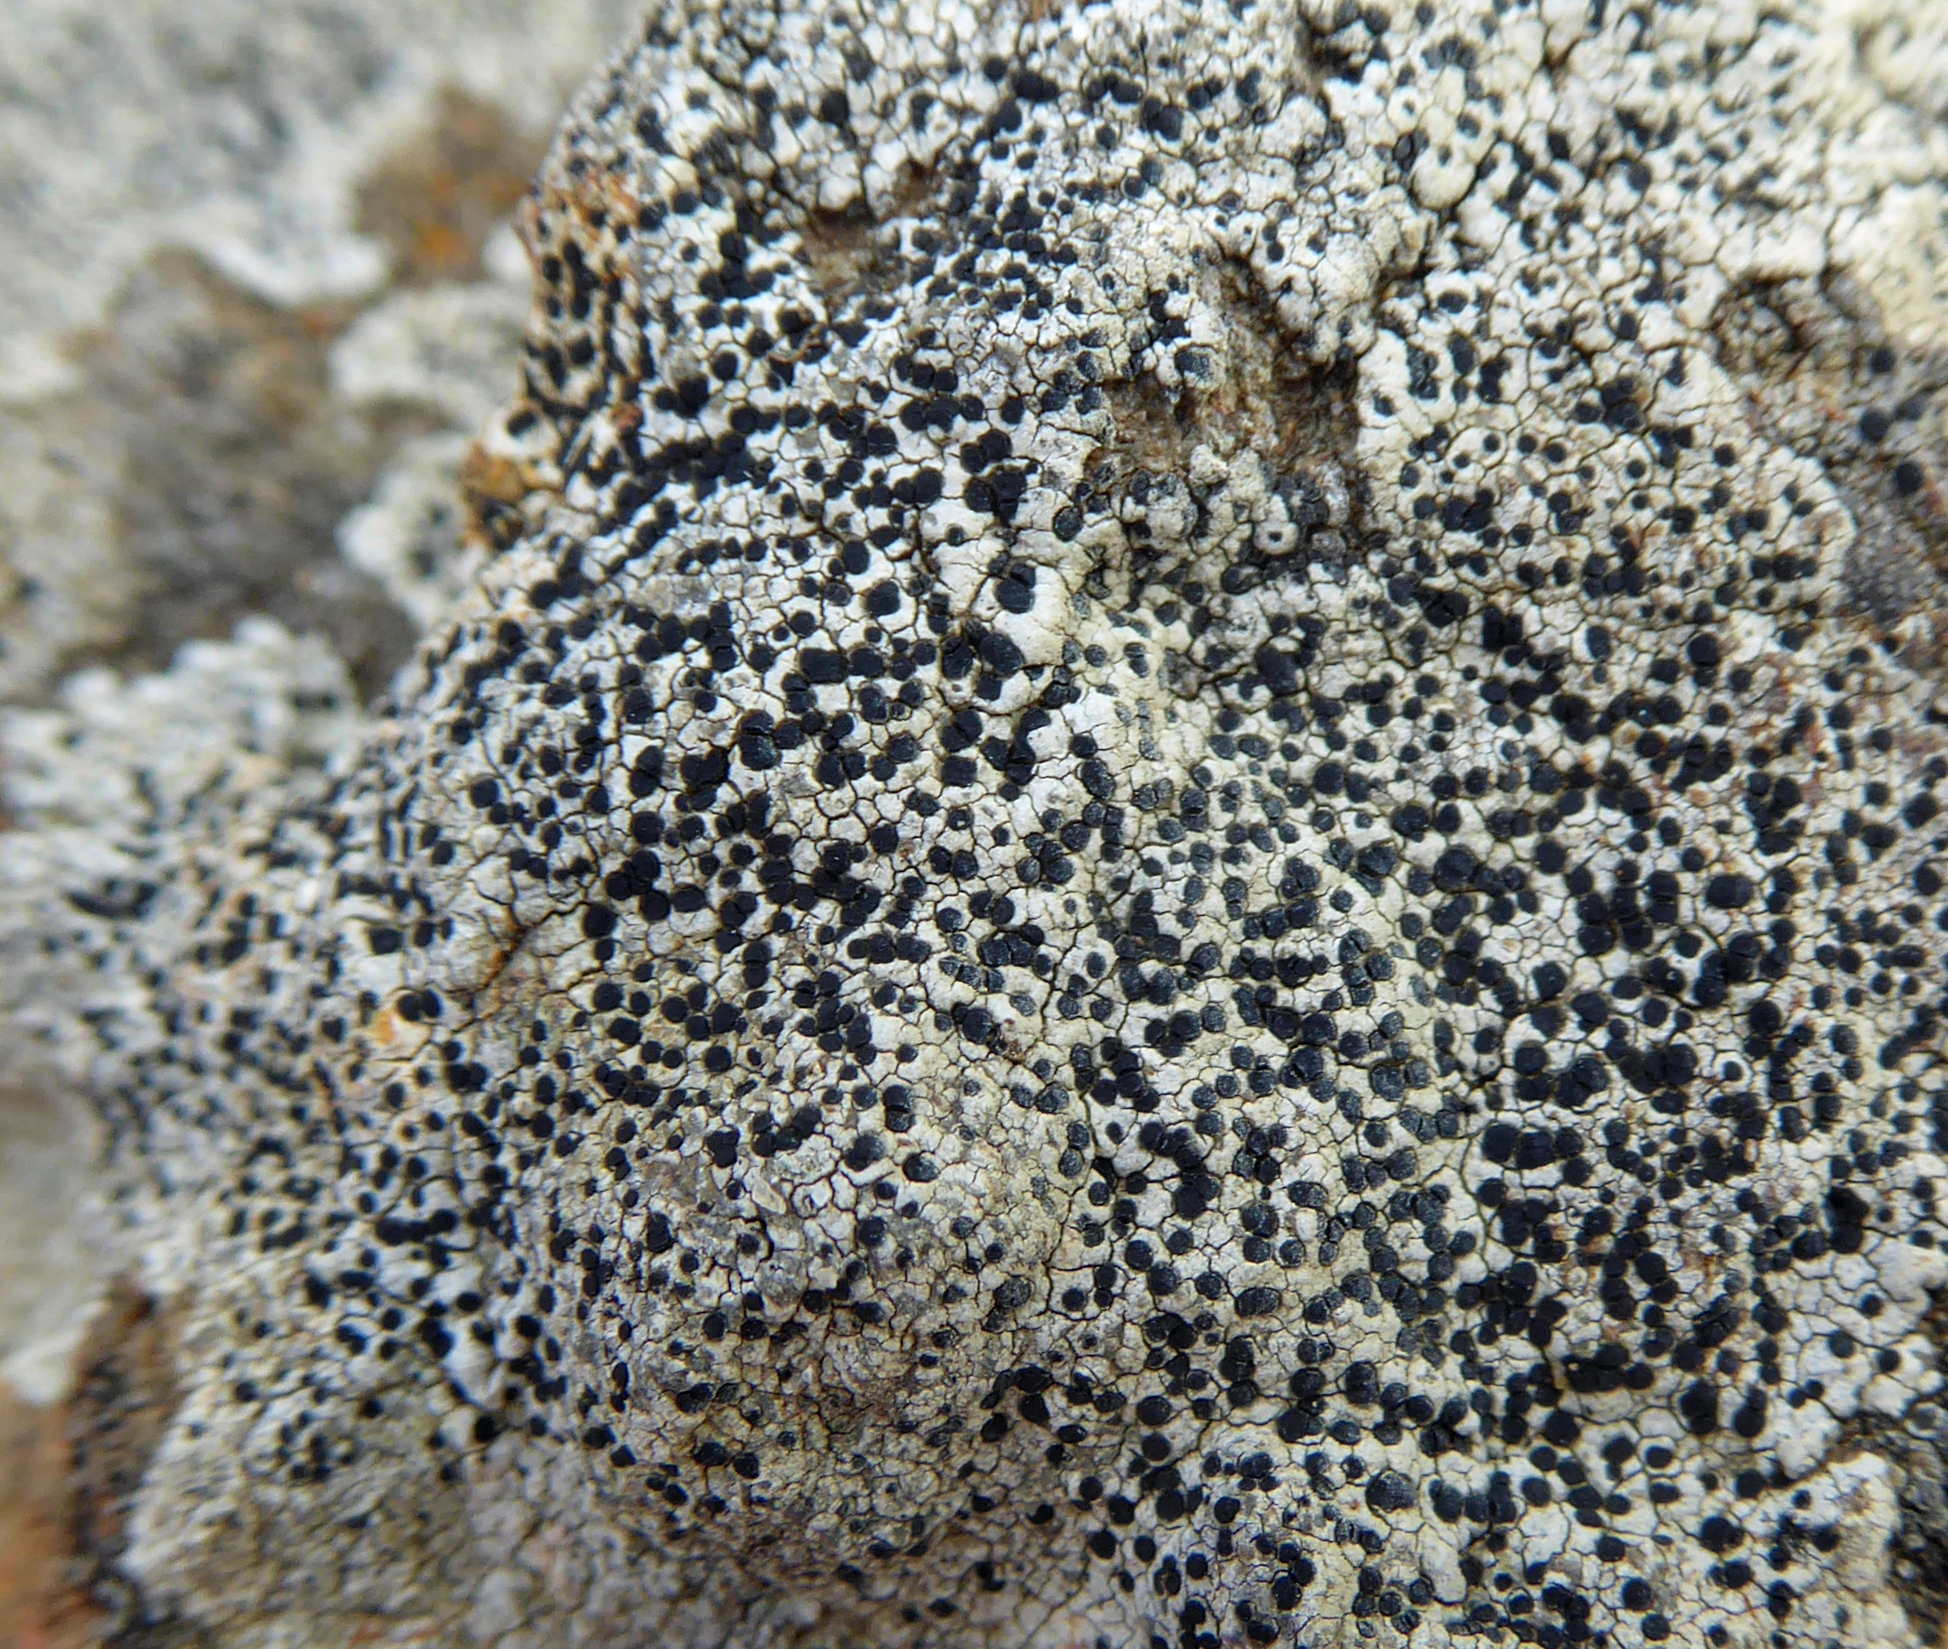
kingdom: Fungi
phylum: Ascomycota
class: Lecanoromycetes
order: Caliciales
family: Physciaceae
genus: Rinodinella
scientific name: Rinodinella fertilis
